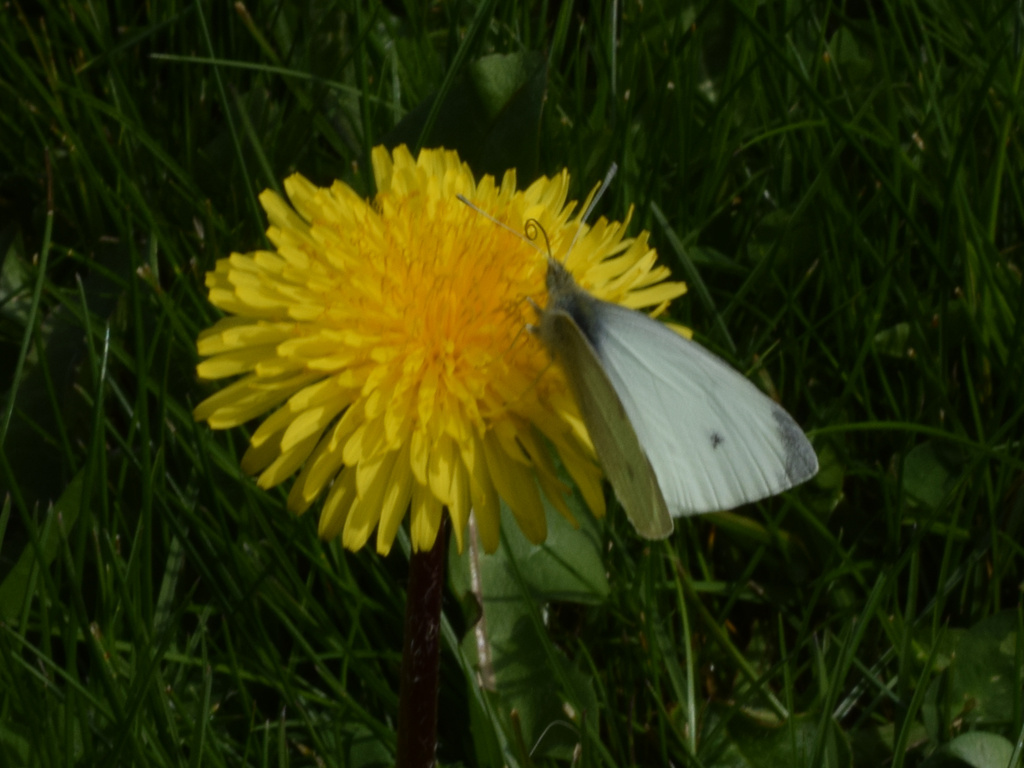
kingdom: Animalia
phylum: Arthropoda
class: Insecta
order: Lepidoptera
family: Pieridae
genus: Pieris
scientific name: Pieris rapae
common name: Small white
